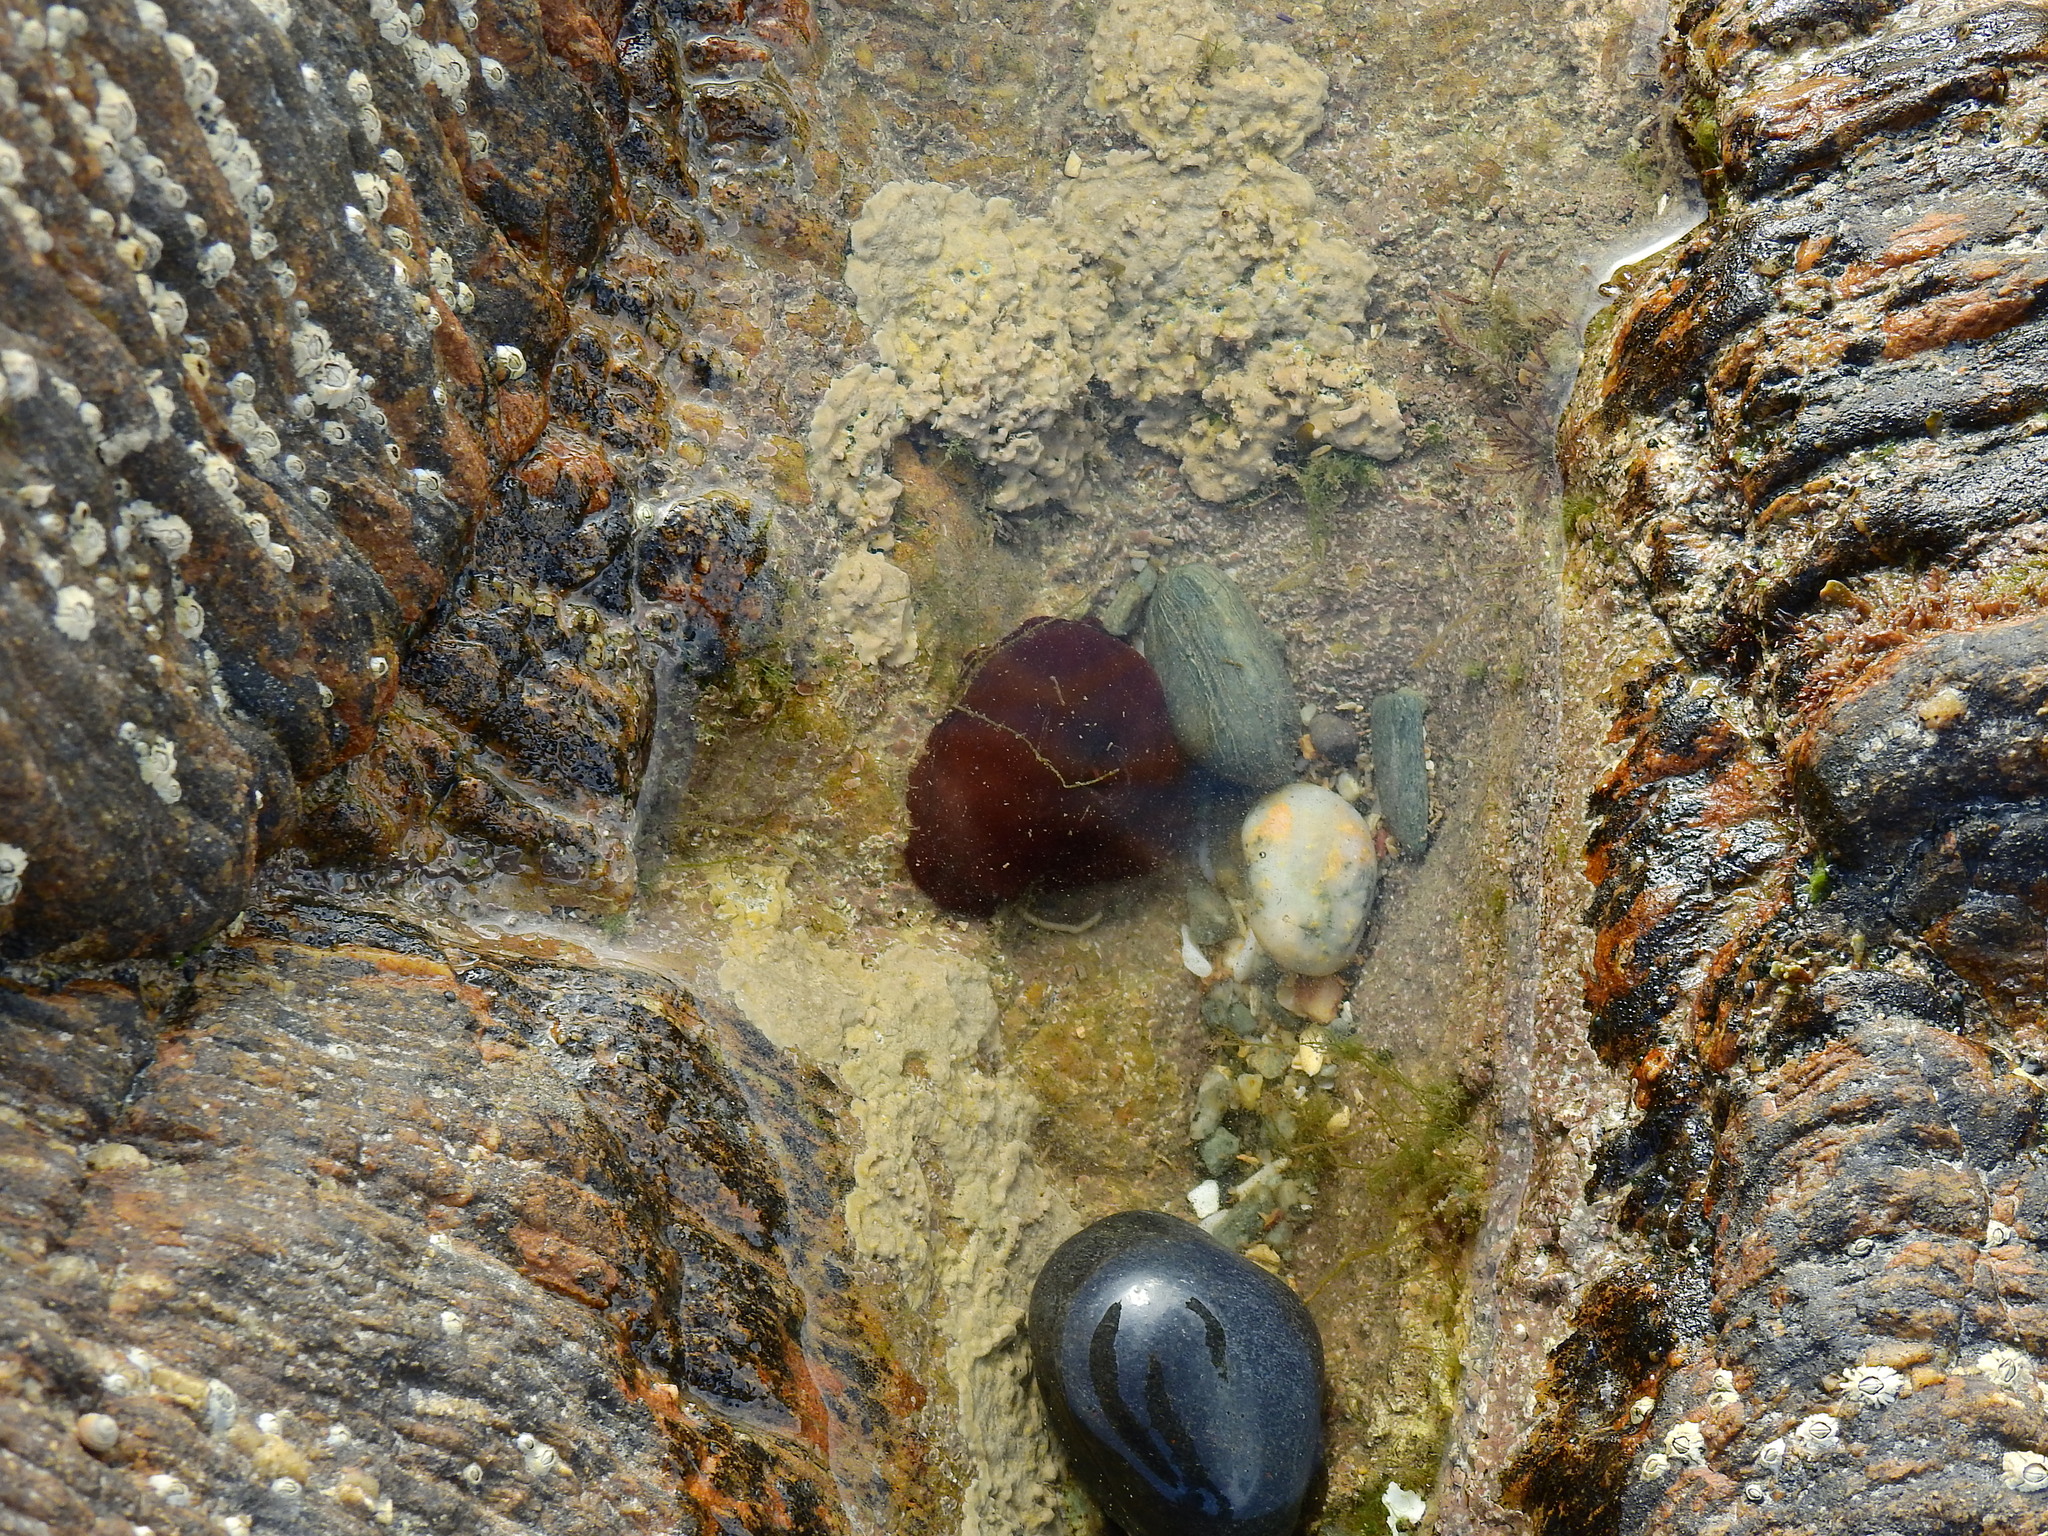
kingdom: Animalia
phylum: Cnidaria
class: Anthozoa
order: Actiniaria
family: Actiniidae
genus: Actinia
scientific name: Actinia equina
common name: Beadlet anemone
